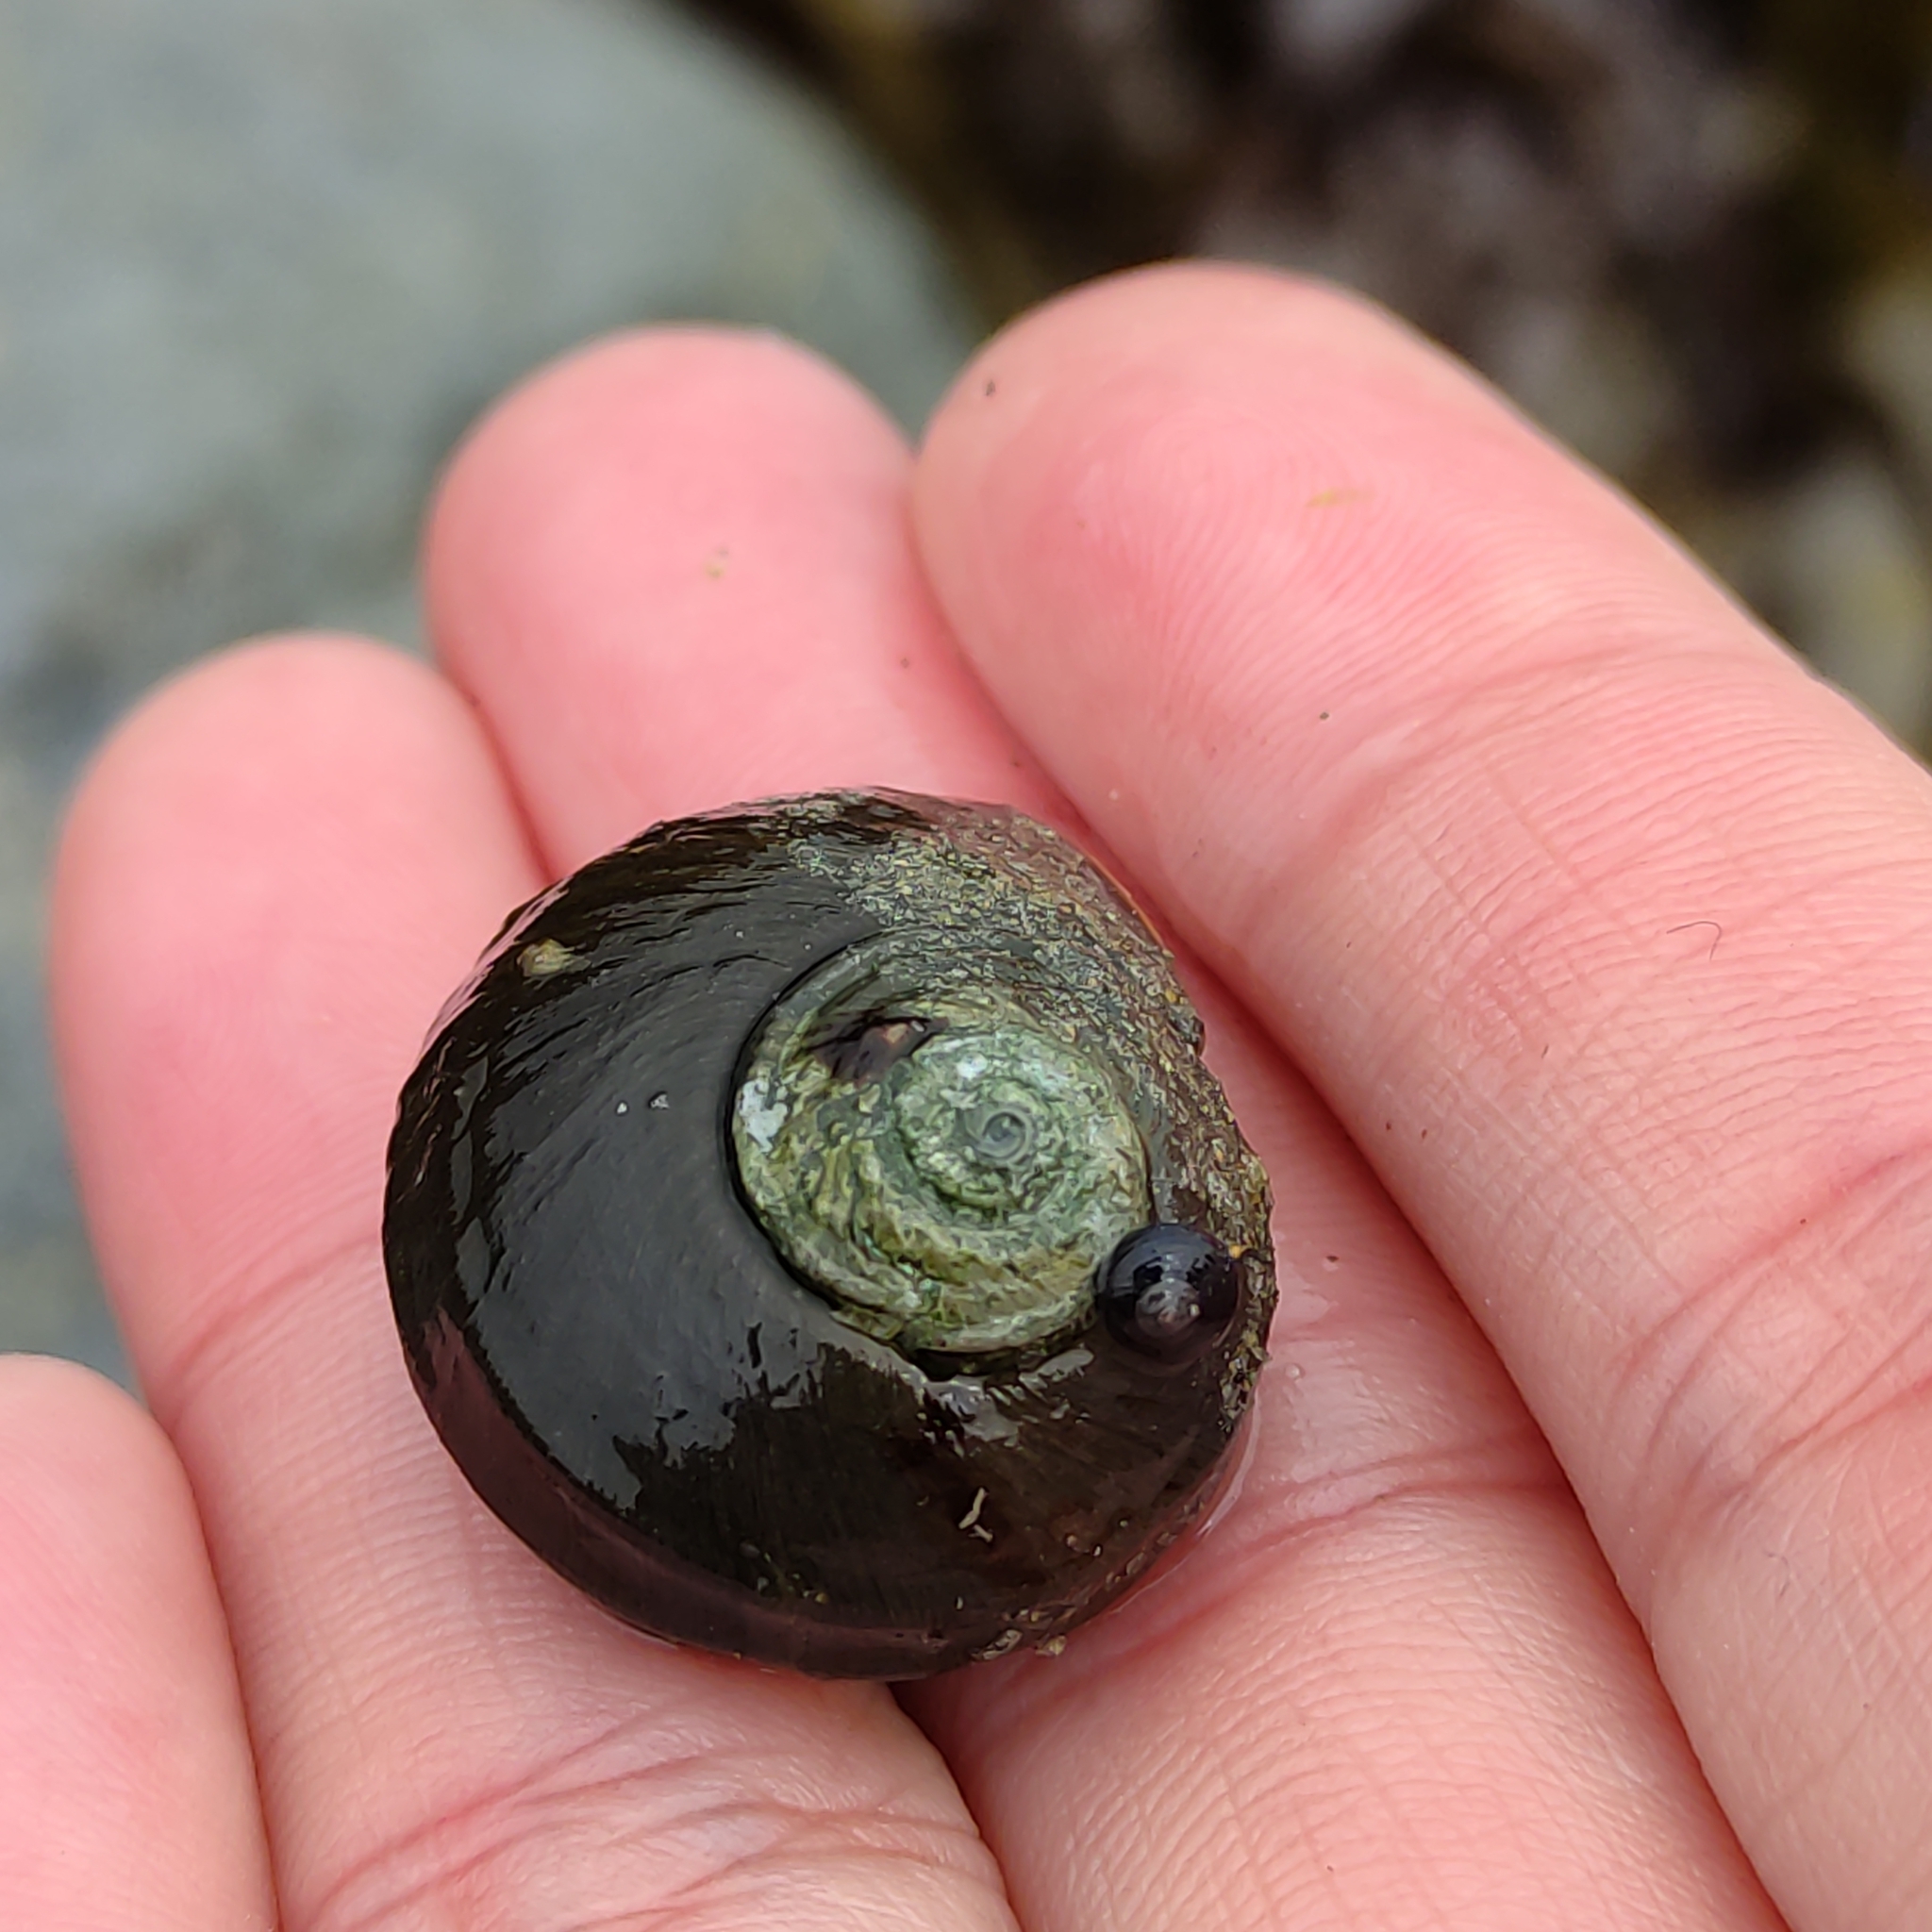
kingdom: Animalia
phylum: Mollusca
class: Gastropoda
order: Trochida
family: Turbinidae
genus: Lunella
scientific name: Lunella smaragda
